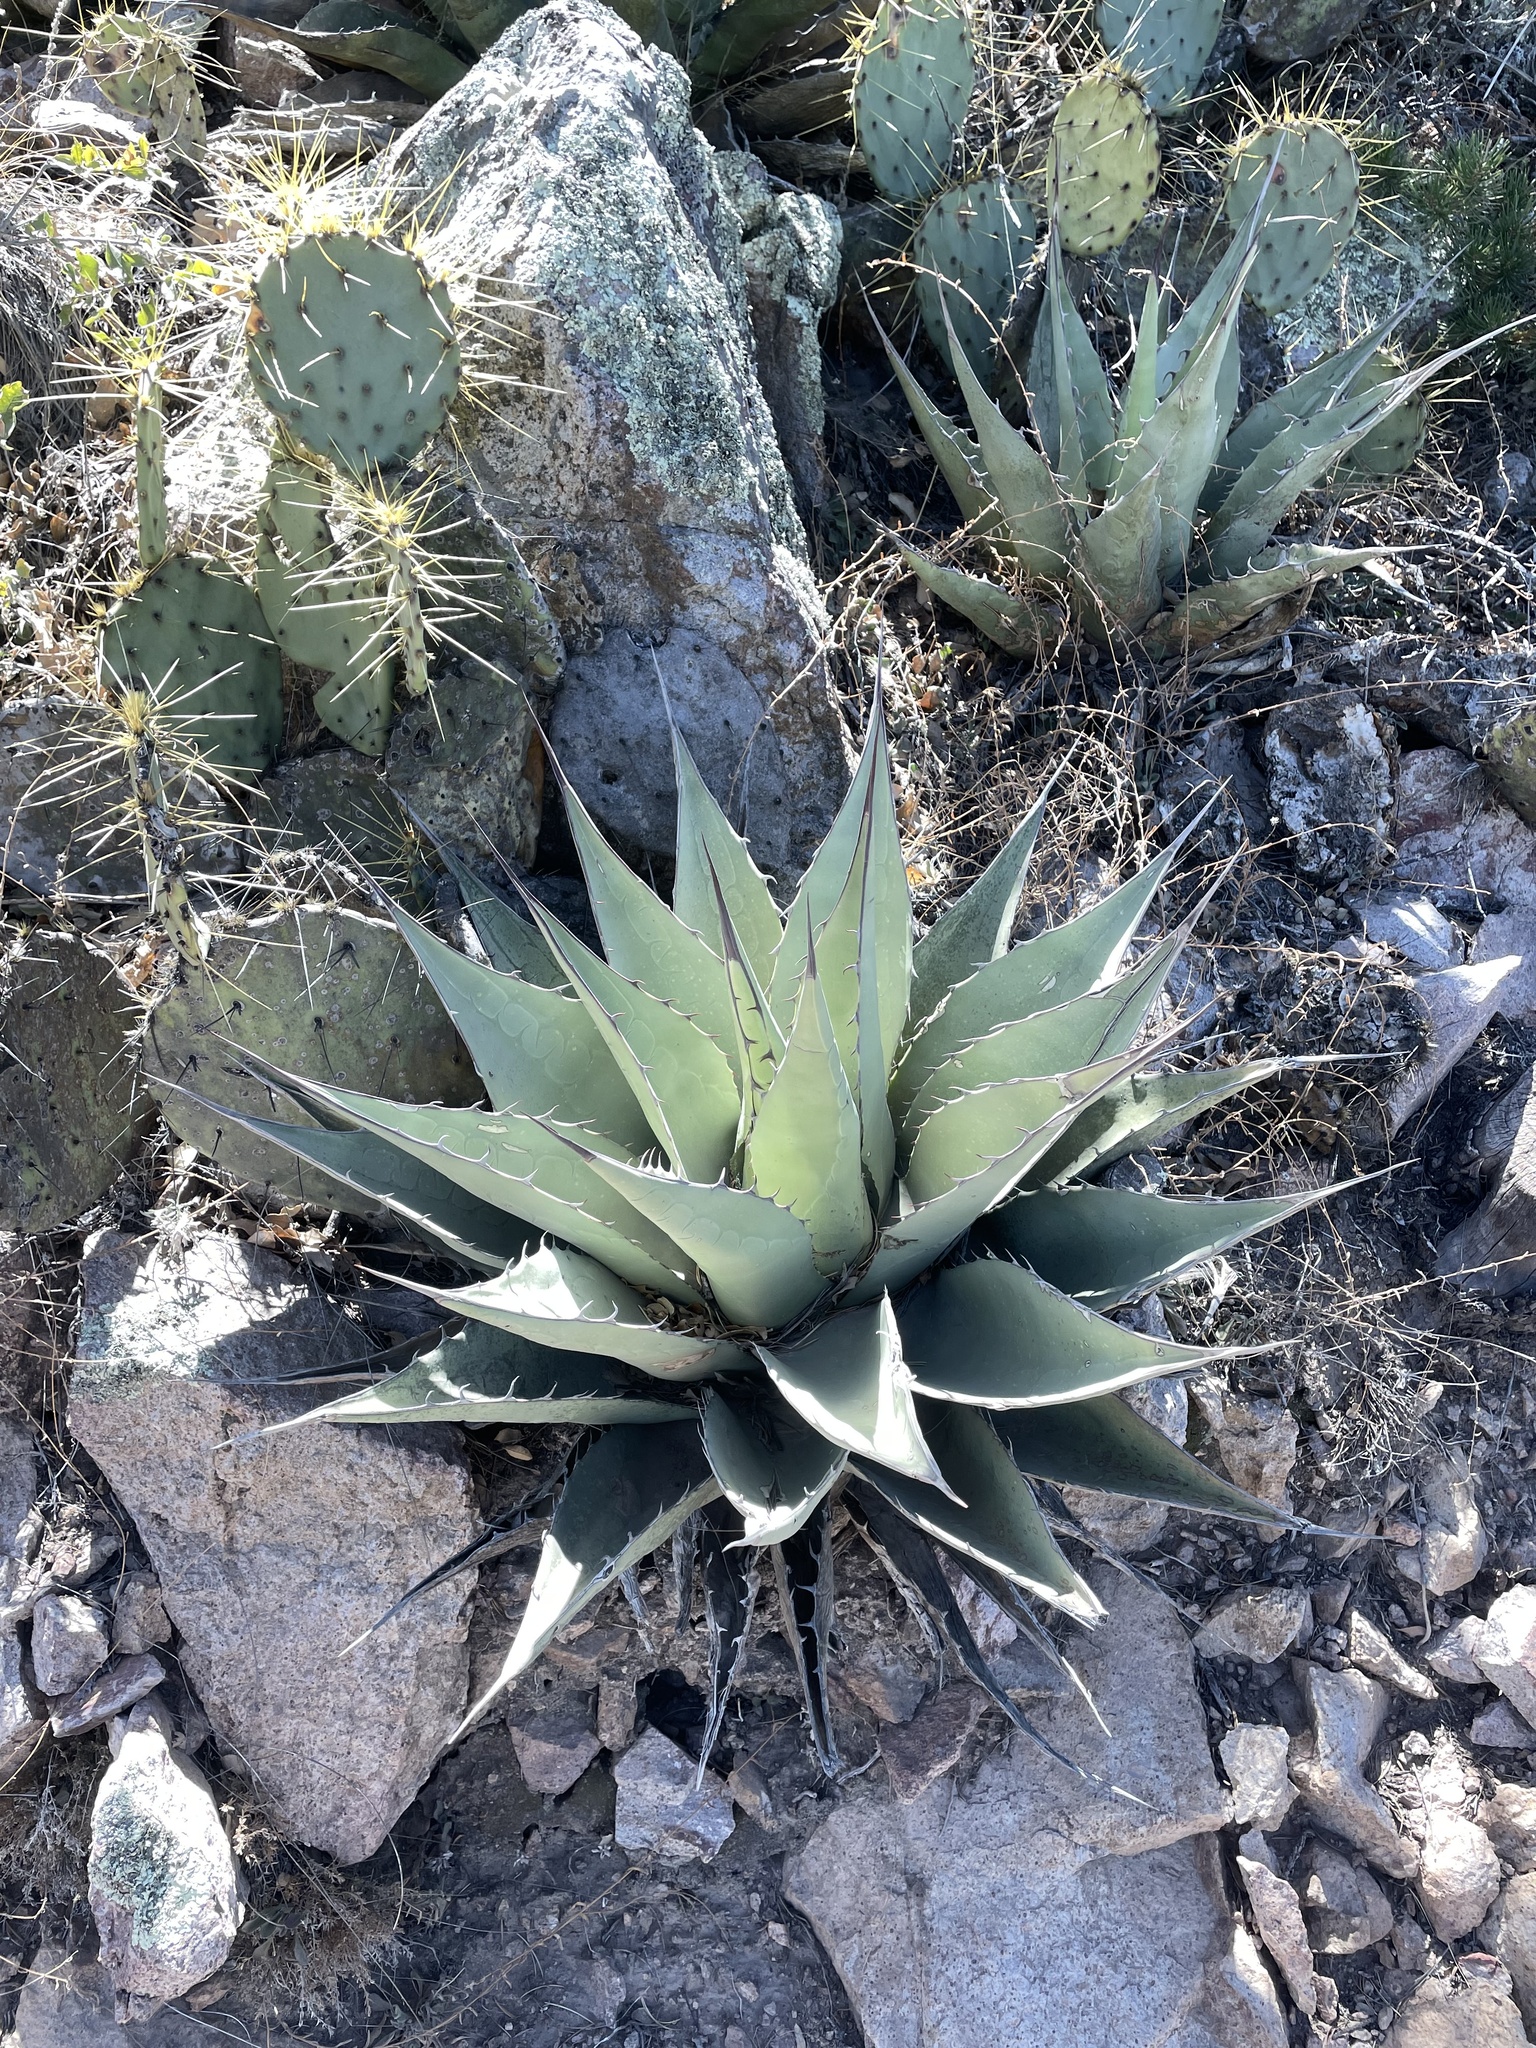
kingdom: Plantae
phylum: Tracheophyta
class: Liliopsida
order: Asparagales
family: Asparagaceae
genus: Agave
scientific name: Agave havardiana
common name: Havard agave
